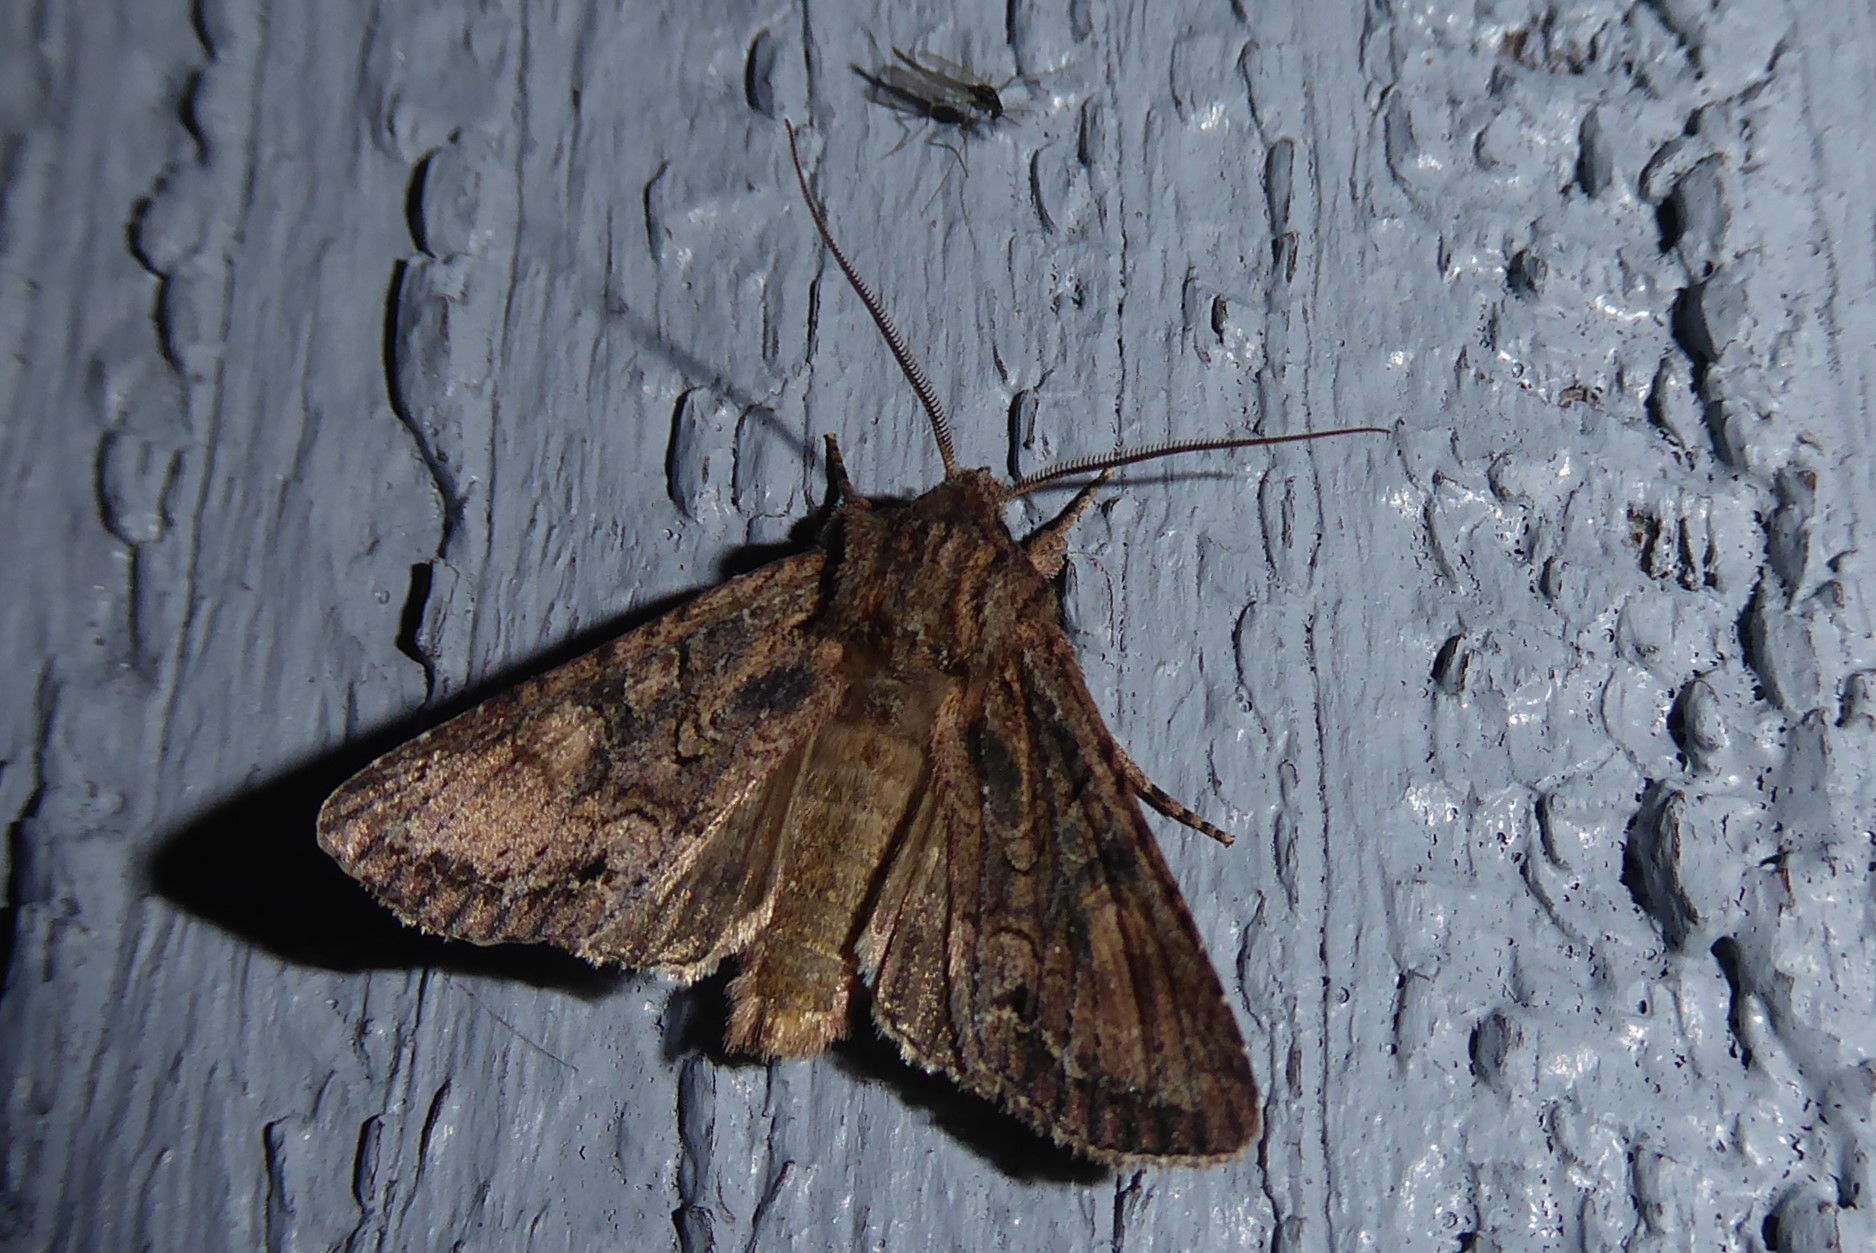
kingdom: Animalia
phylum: Arthropoda
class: Insecta
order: Lepidoptera
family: Noctuidae
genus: Ichneutica
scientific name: Ichneutica mutans
